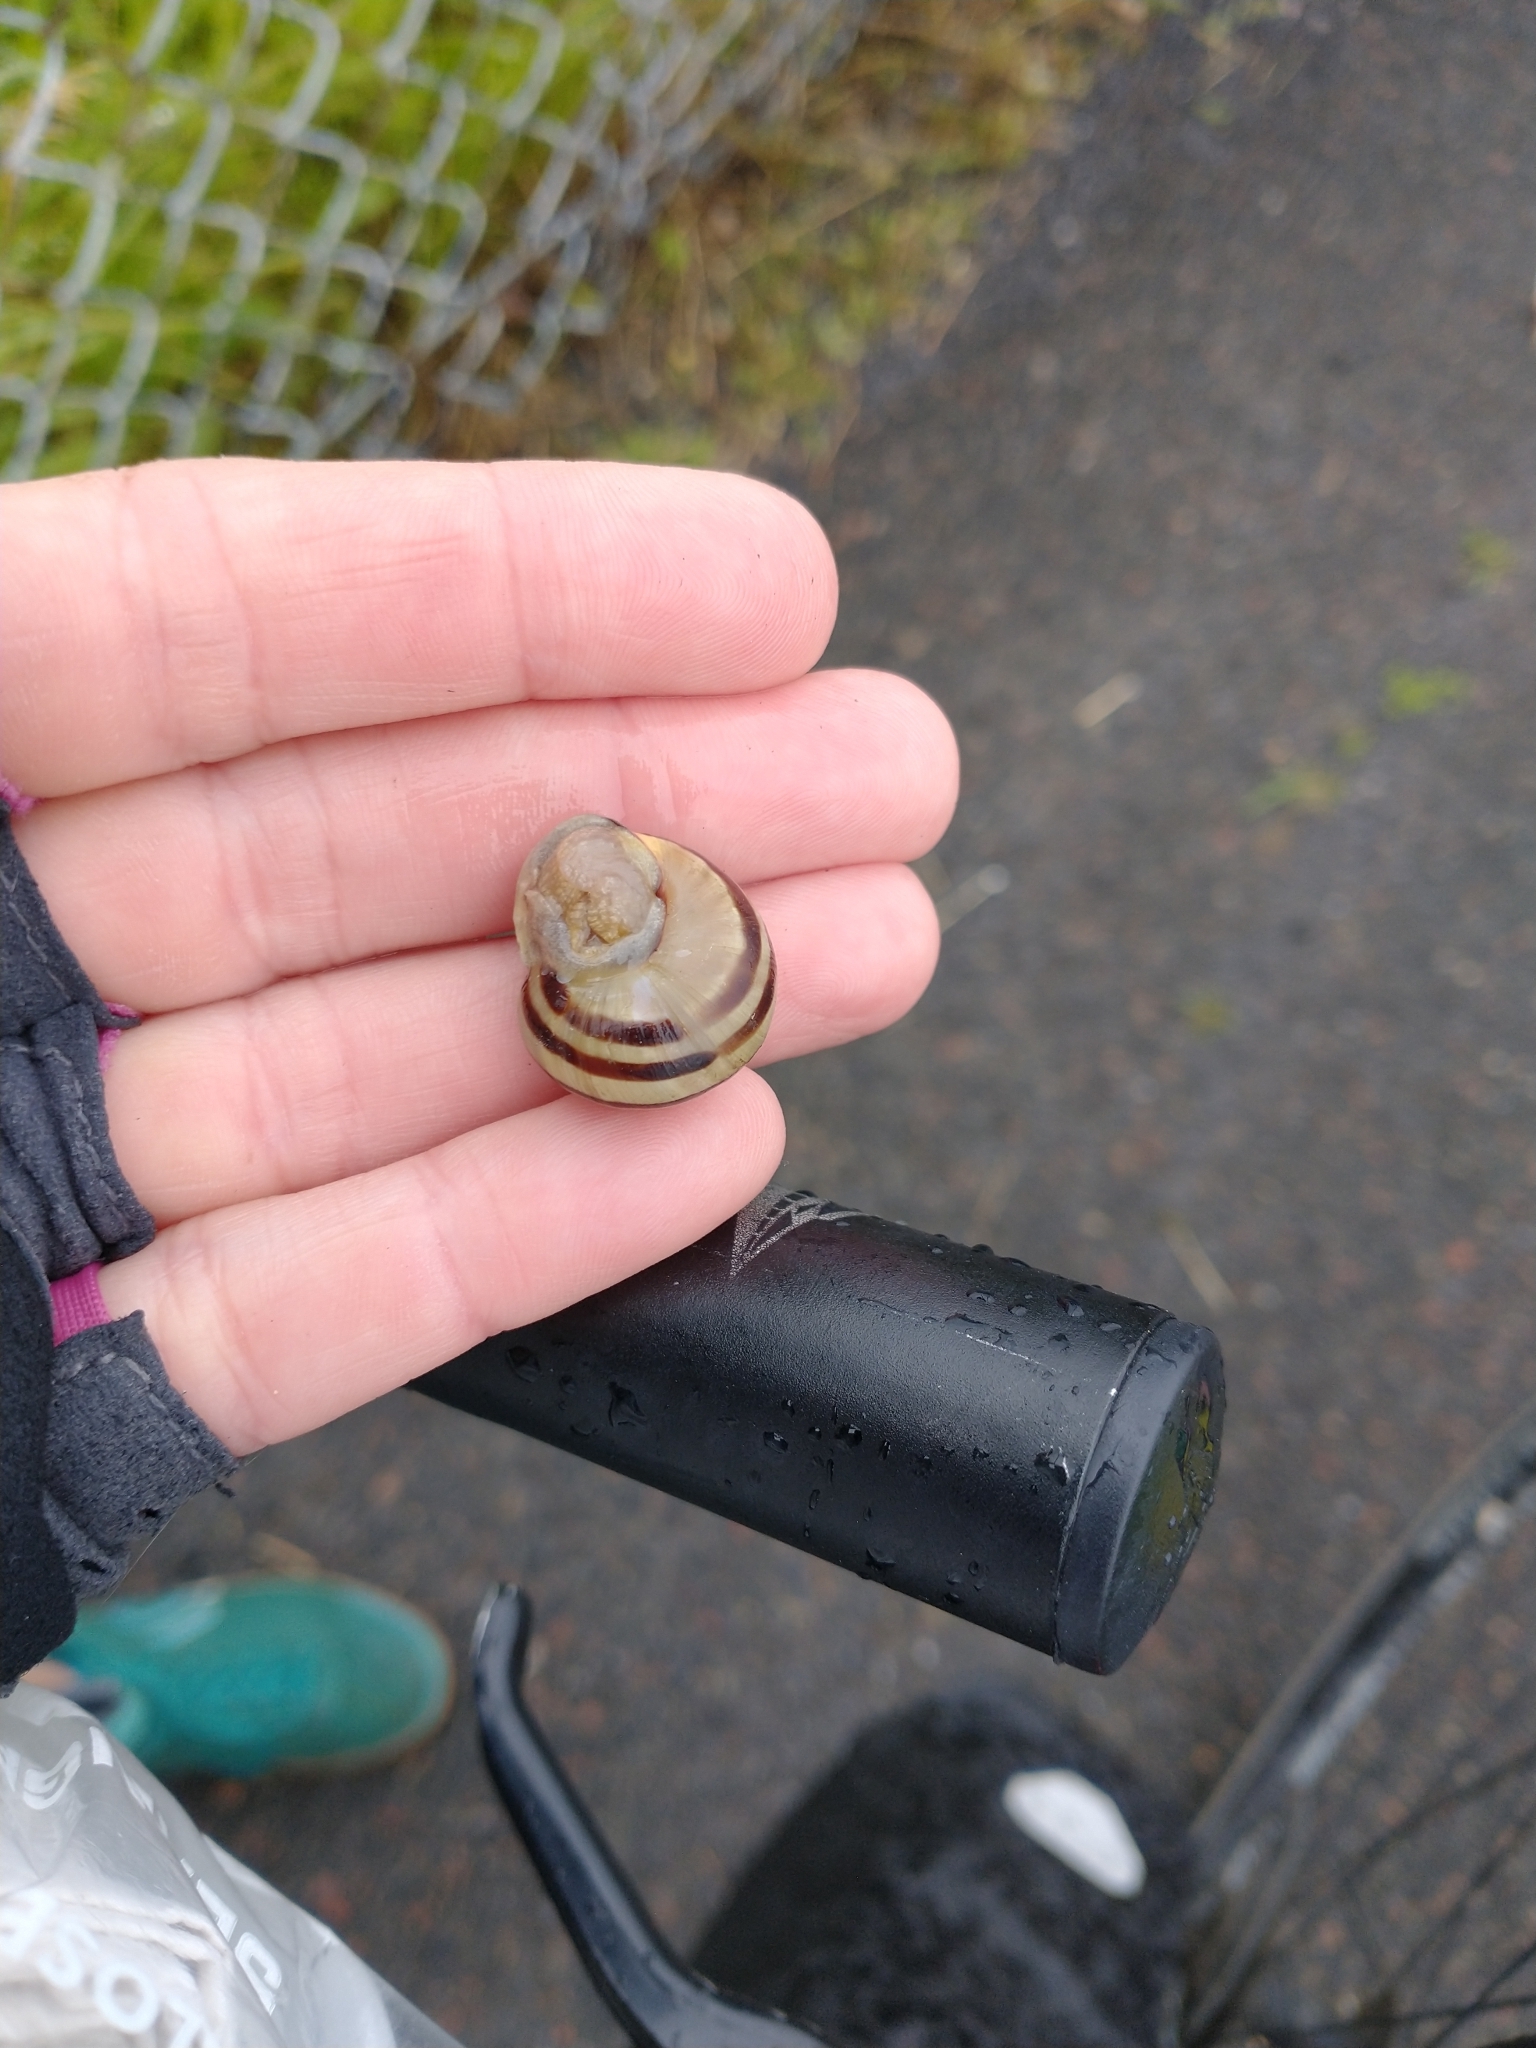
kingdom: Animalia
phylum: Mollusca
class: Gastropoda
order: Stylommatophora
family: Helicidae
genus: Cepaea
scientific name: Cepaea nemoralis
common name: Grovesnail
